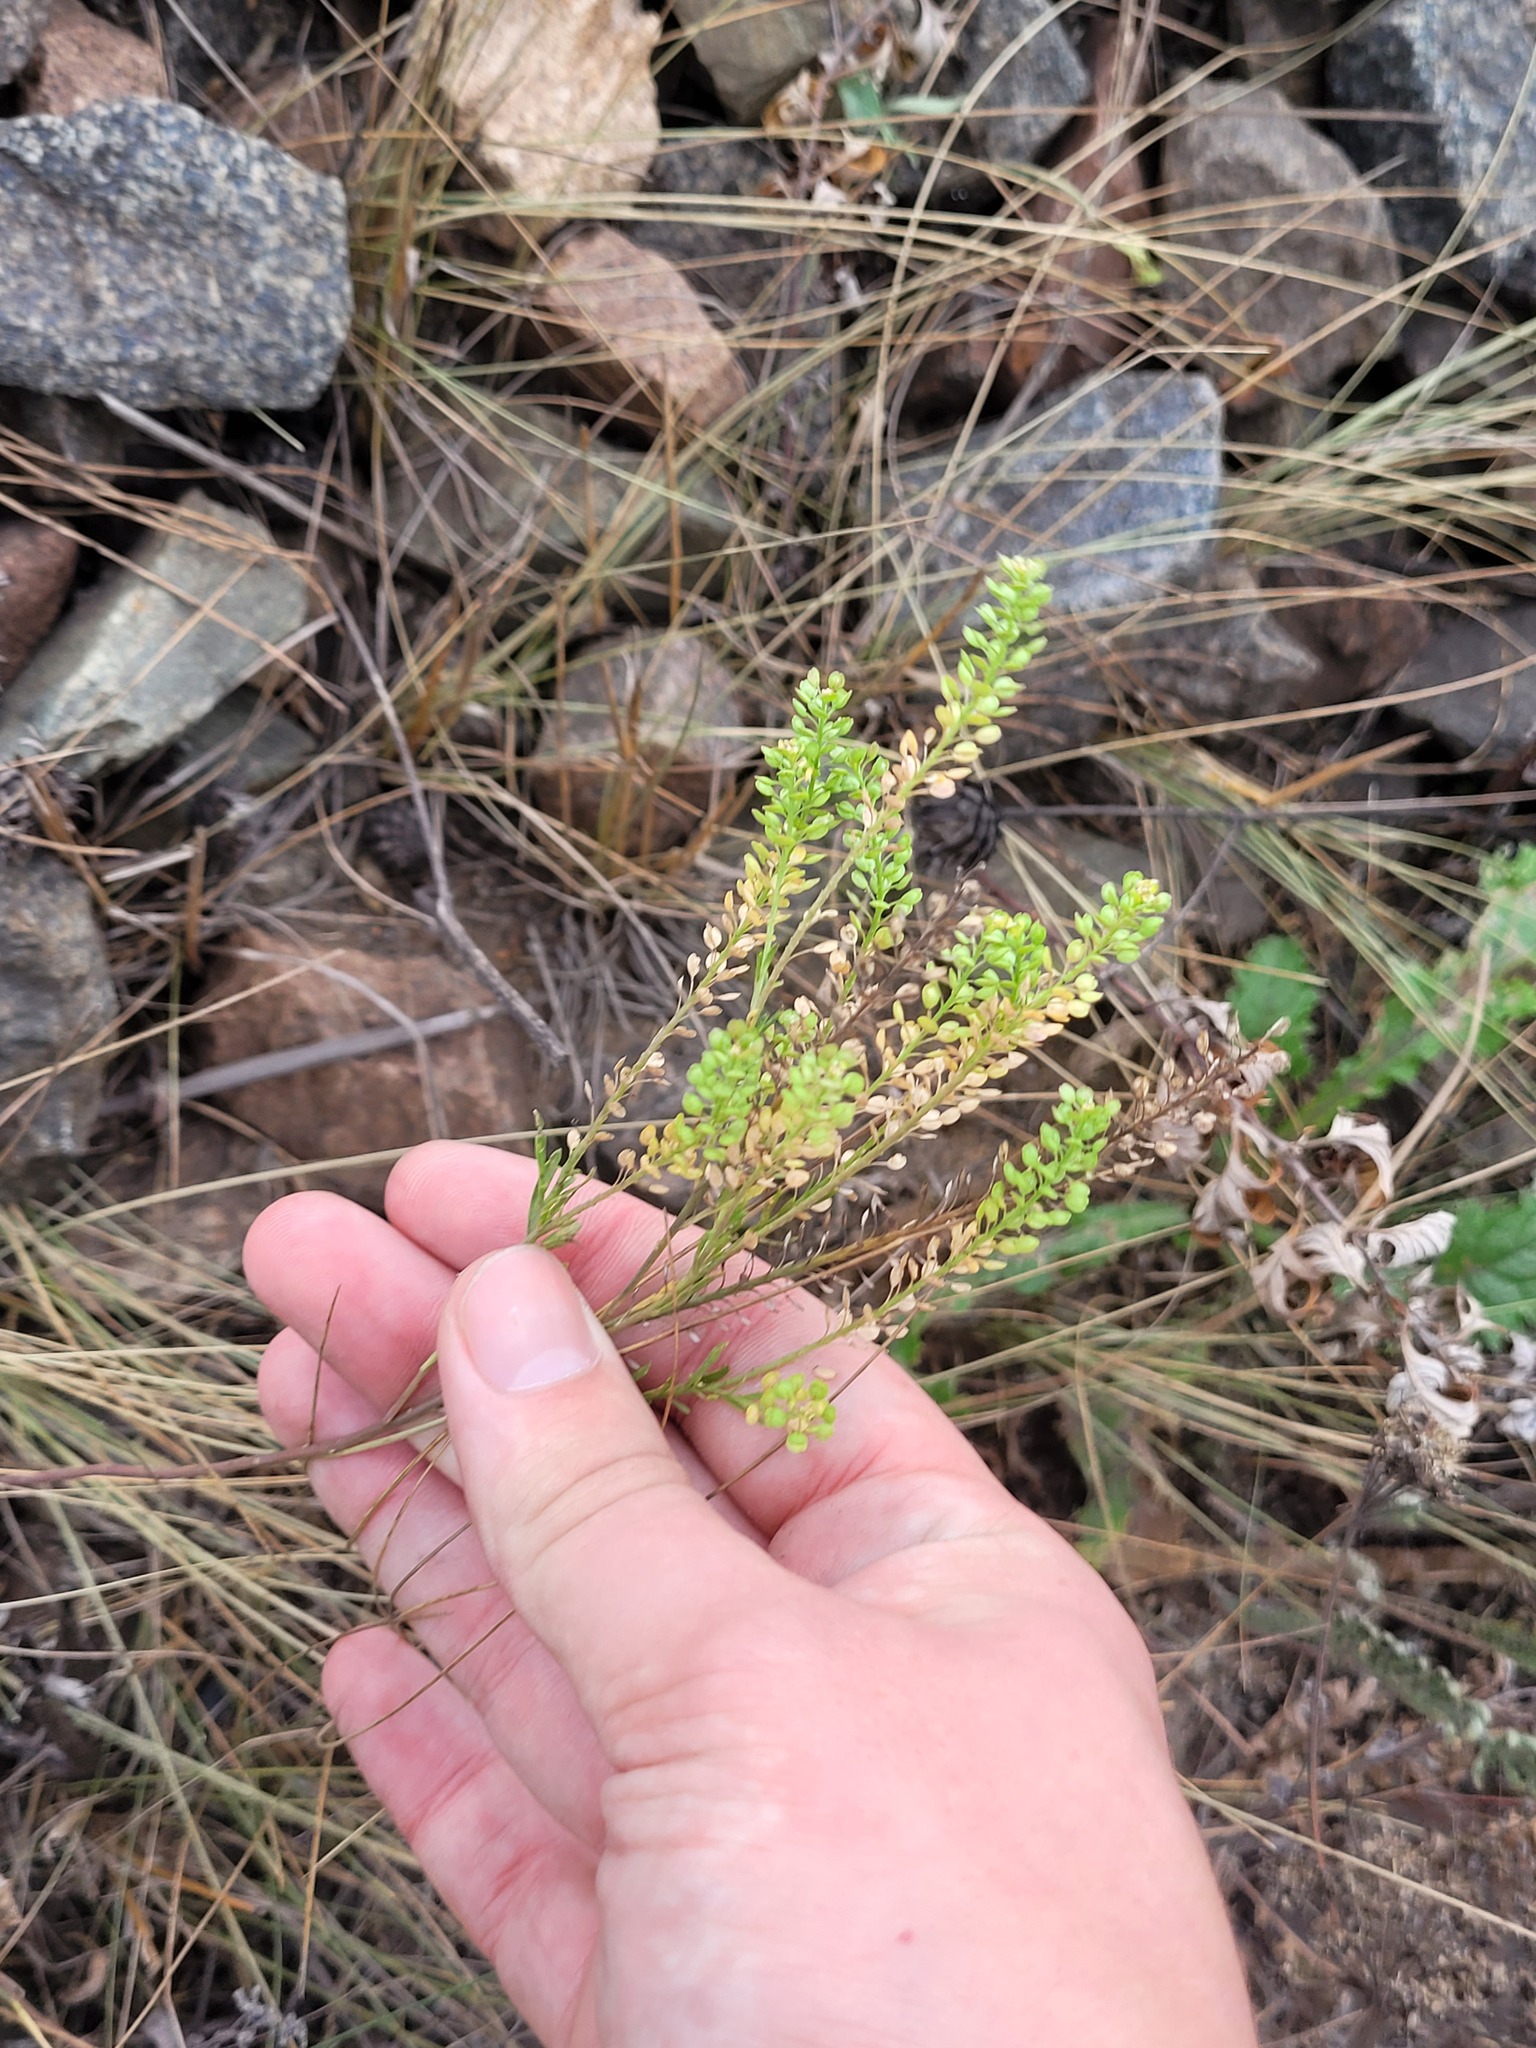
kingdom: Plantae
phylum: Tracheophyta
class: Magnoliopsida
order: Brassicales
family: Brassicaceae
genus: Lepidium
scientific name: Lepidium densiflorum
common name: Miner's pepperwort
